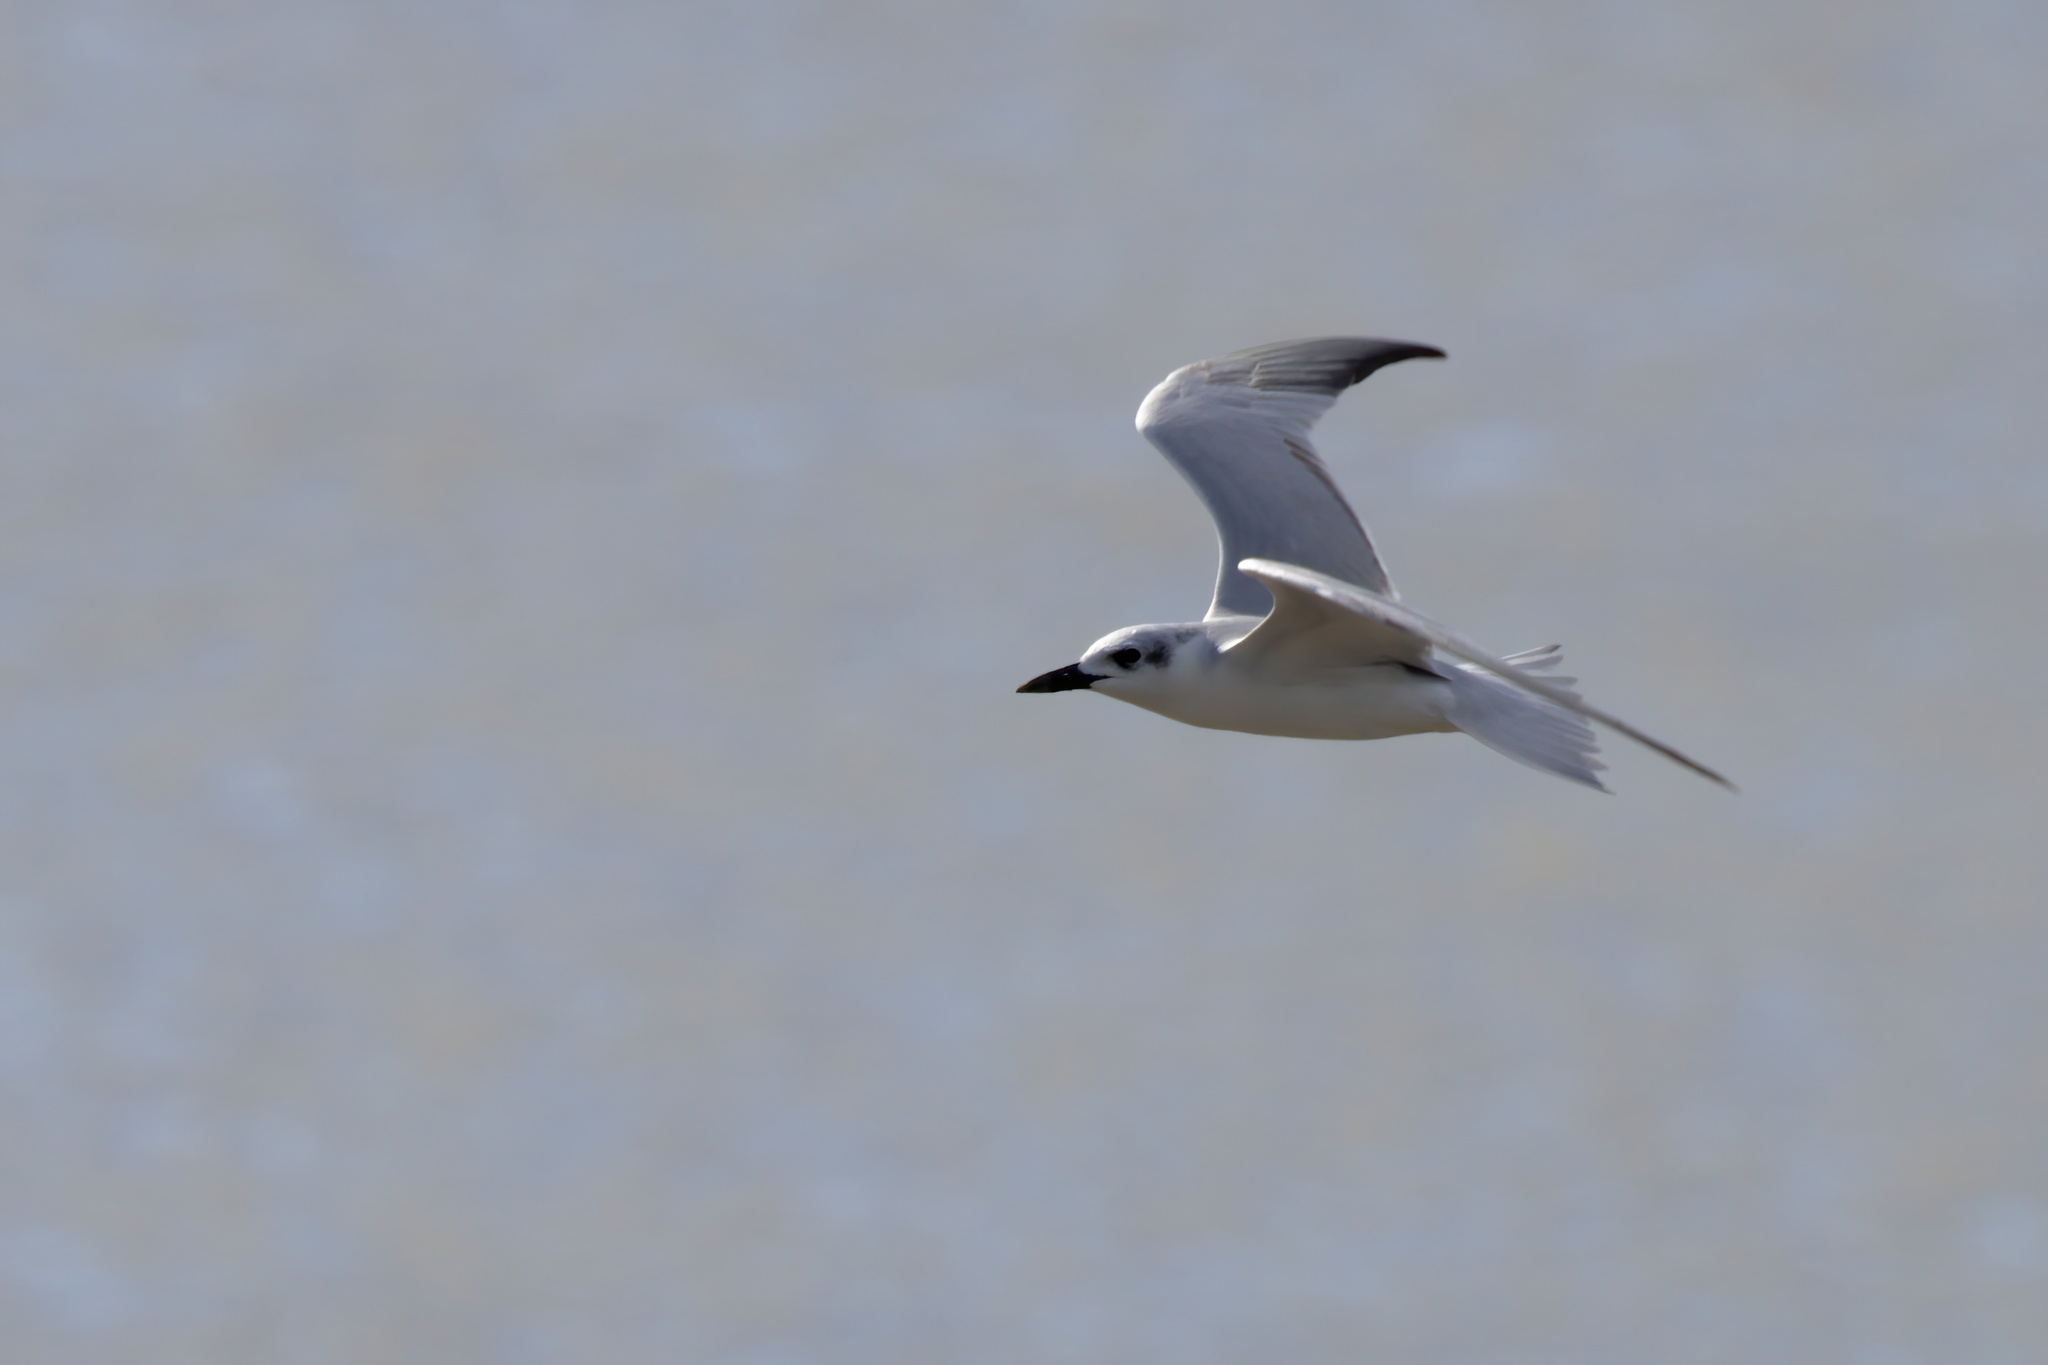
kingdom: Animalia
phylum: Chordata
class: Aves
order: Charadriiformes
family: Laridae
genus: Gelochelidon
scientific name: Gelochelidon nilotica
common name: Gull-billed tern
